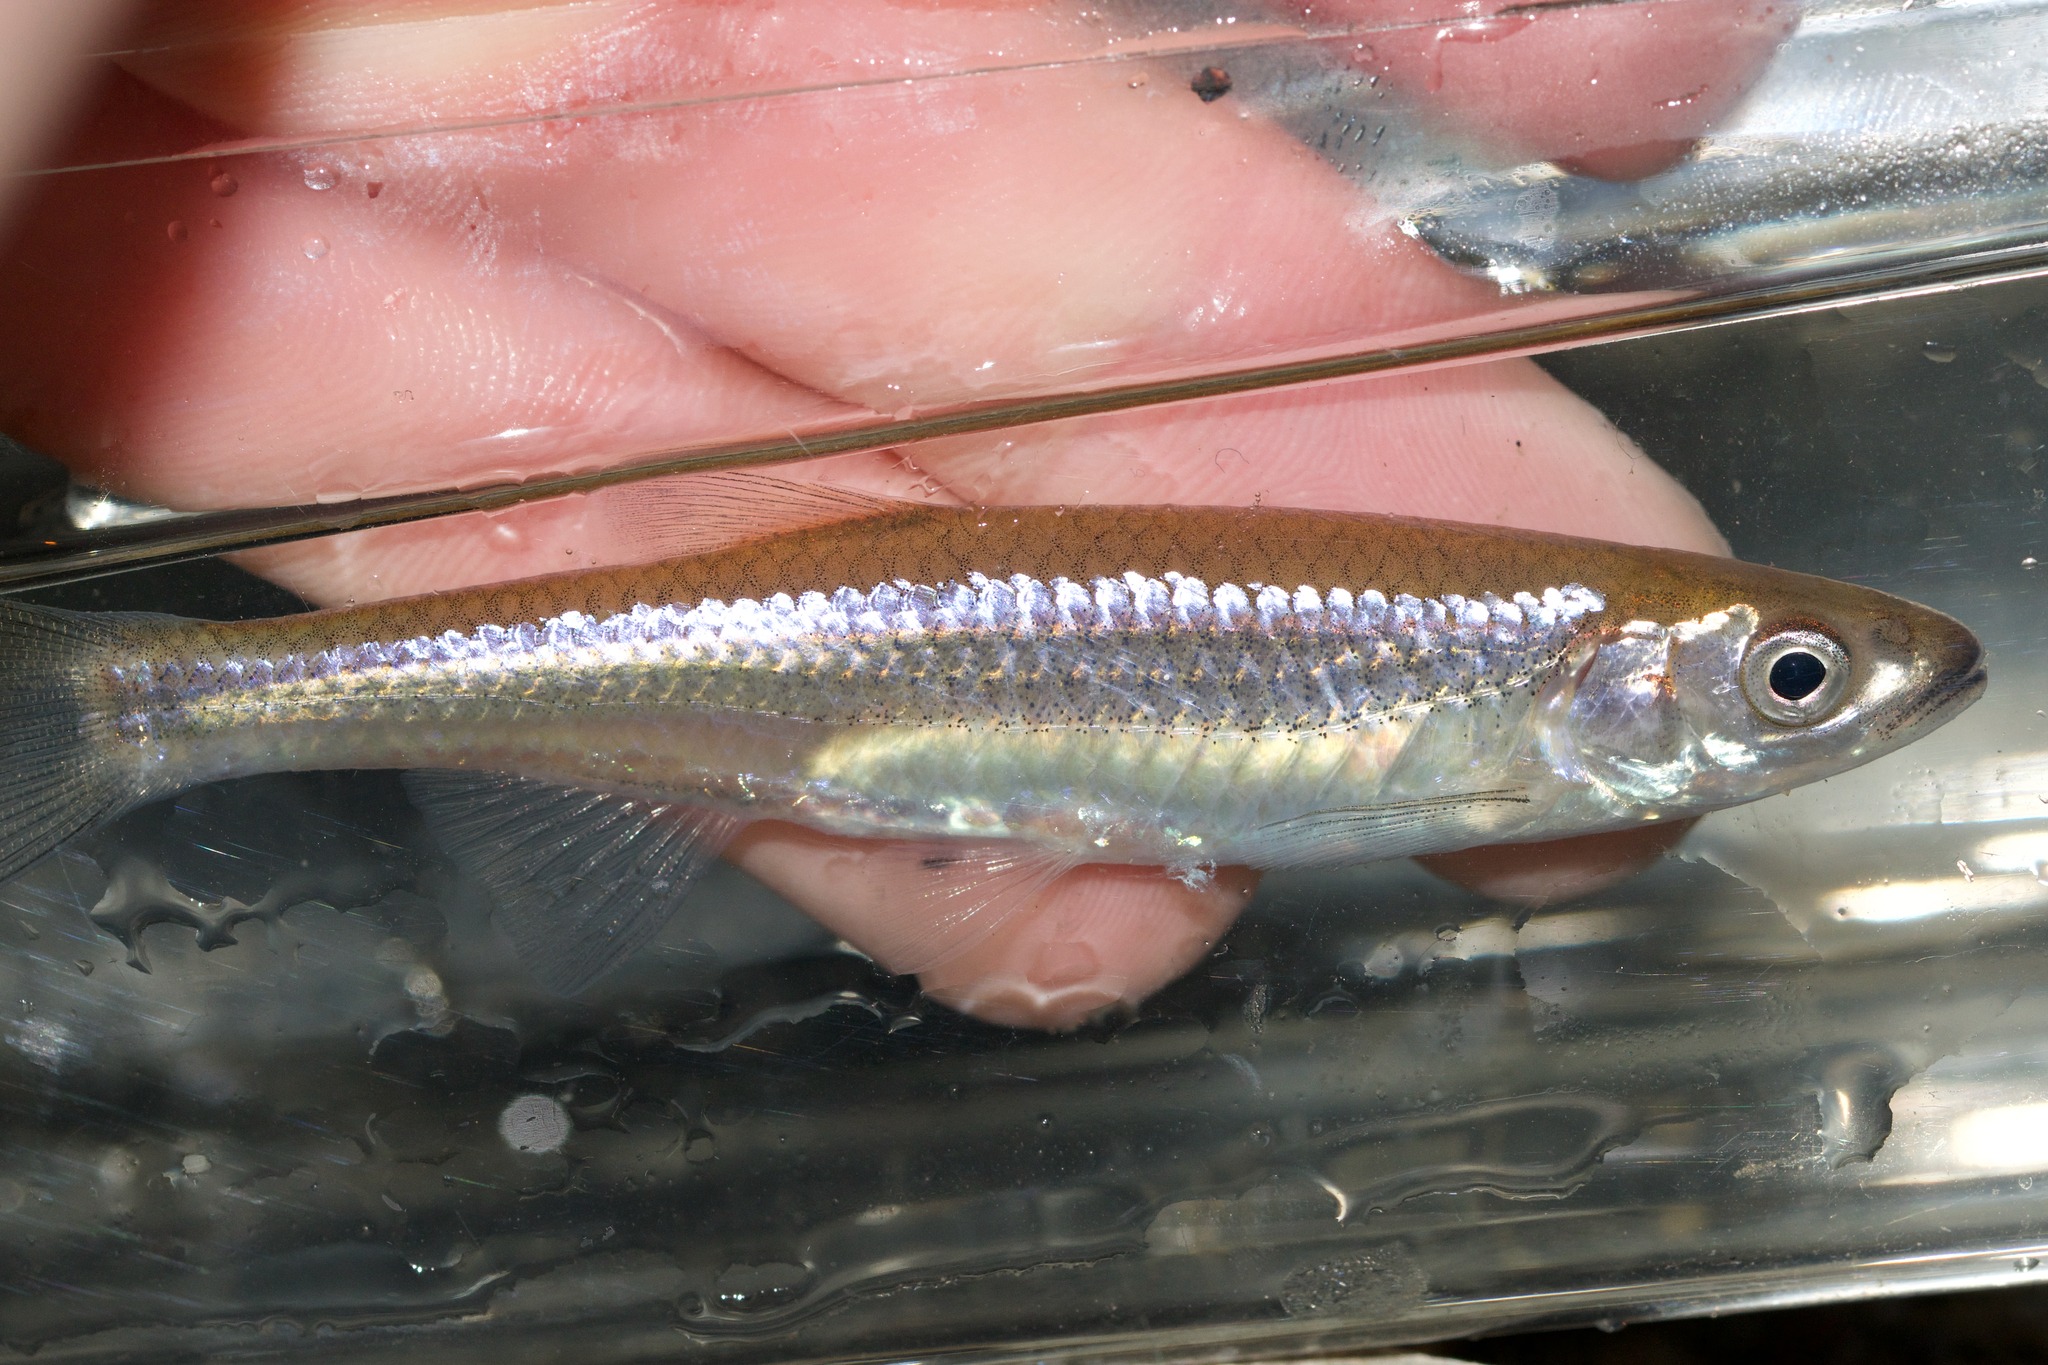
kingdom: Animalia
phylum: Chordata
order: Cypriniformes
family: Cyprinidae
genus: Notropis
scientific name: Notropis rubellus
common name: Rosyface shiner
